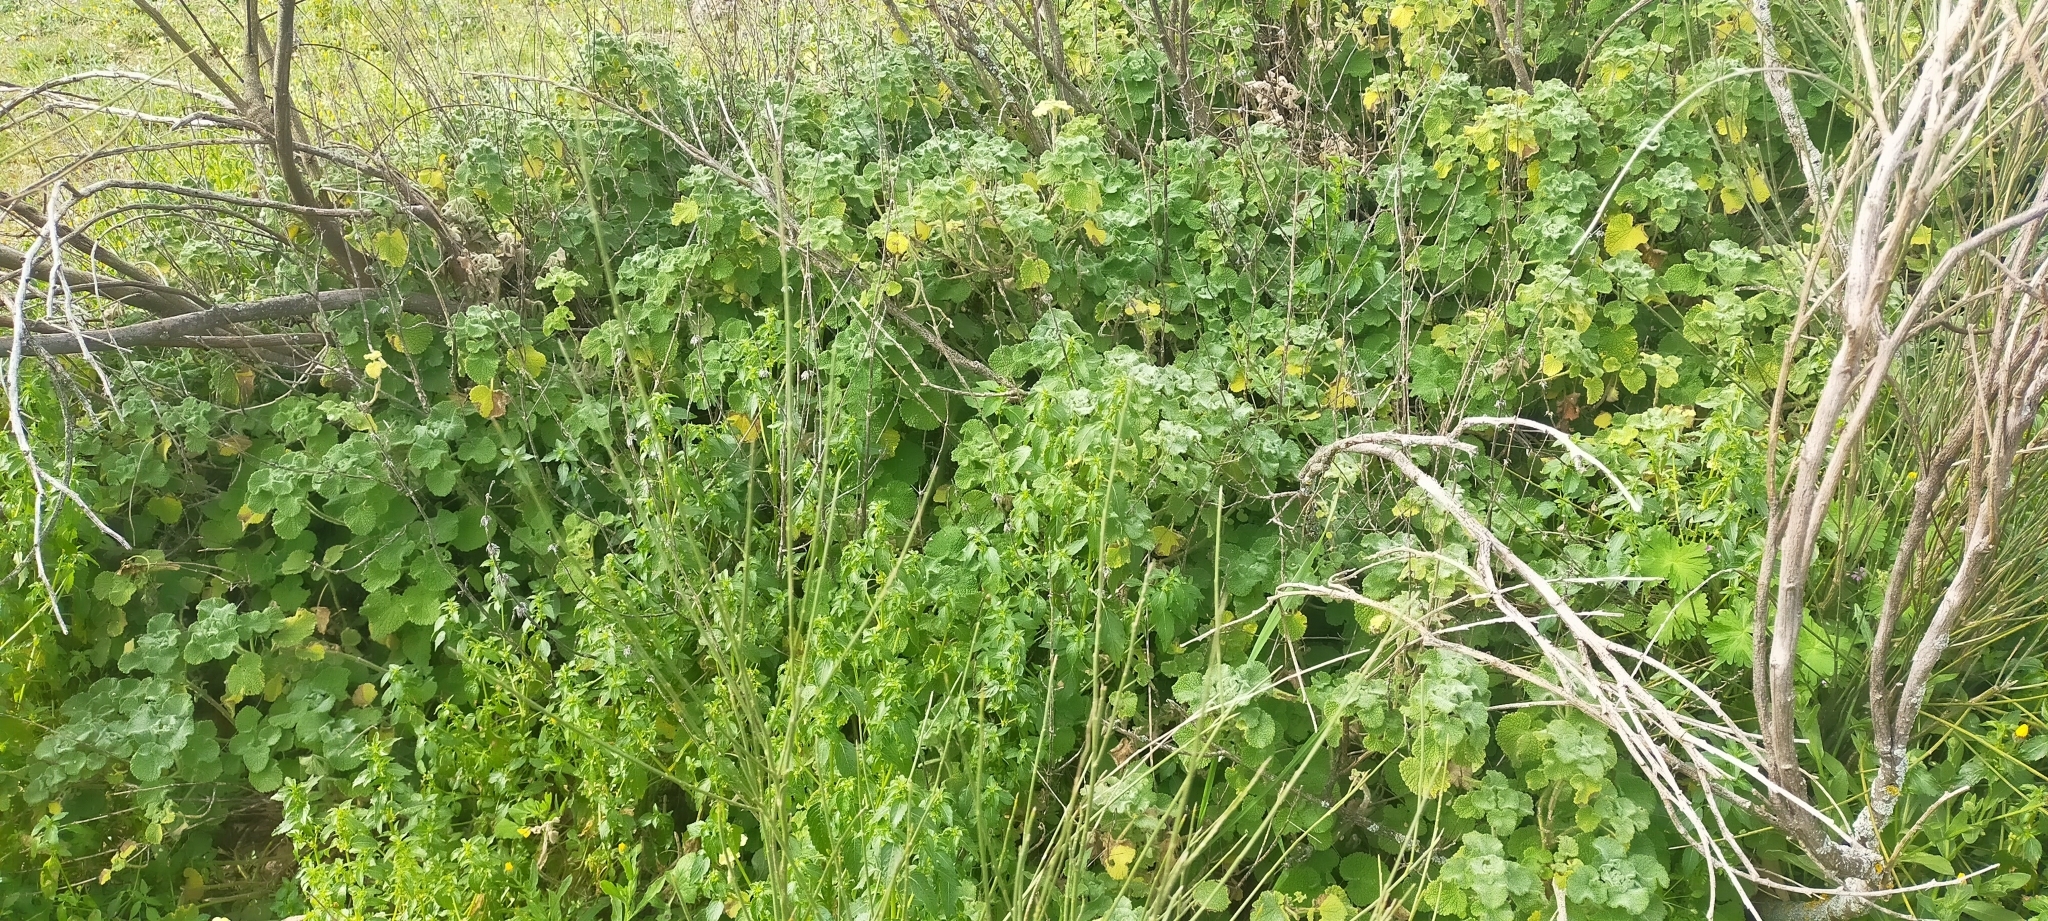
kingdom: Plantae
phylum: Tracheophyta
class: Magnoliopsida
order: Lamiales
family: Lamiaceae
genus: Pseudodictamnus
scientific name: Pseudodictamnus hirsutus
